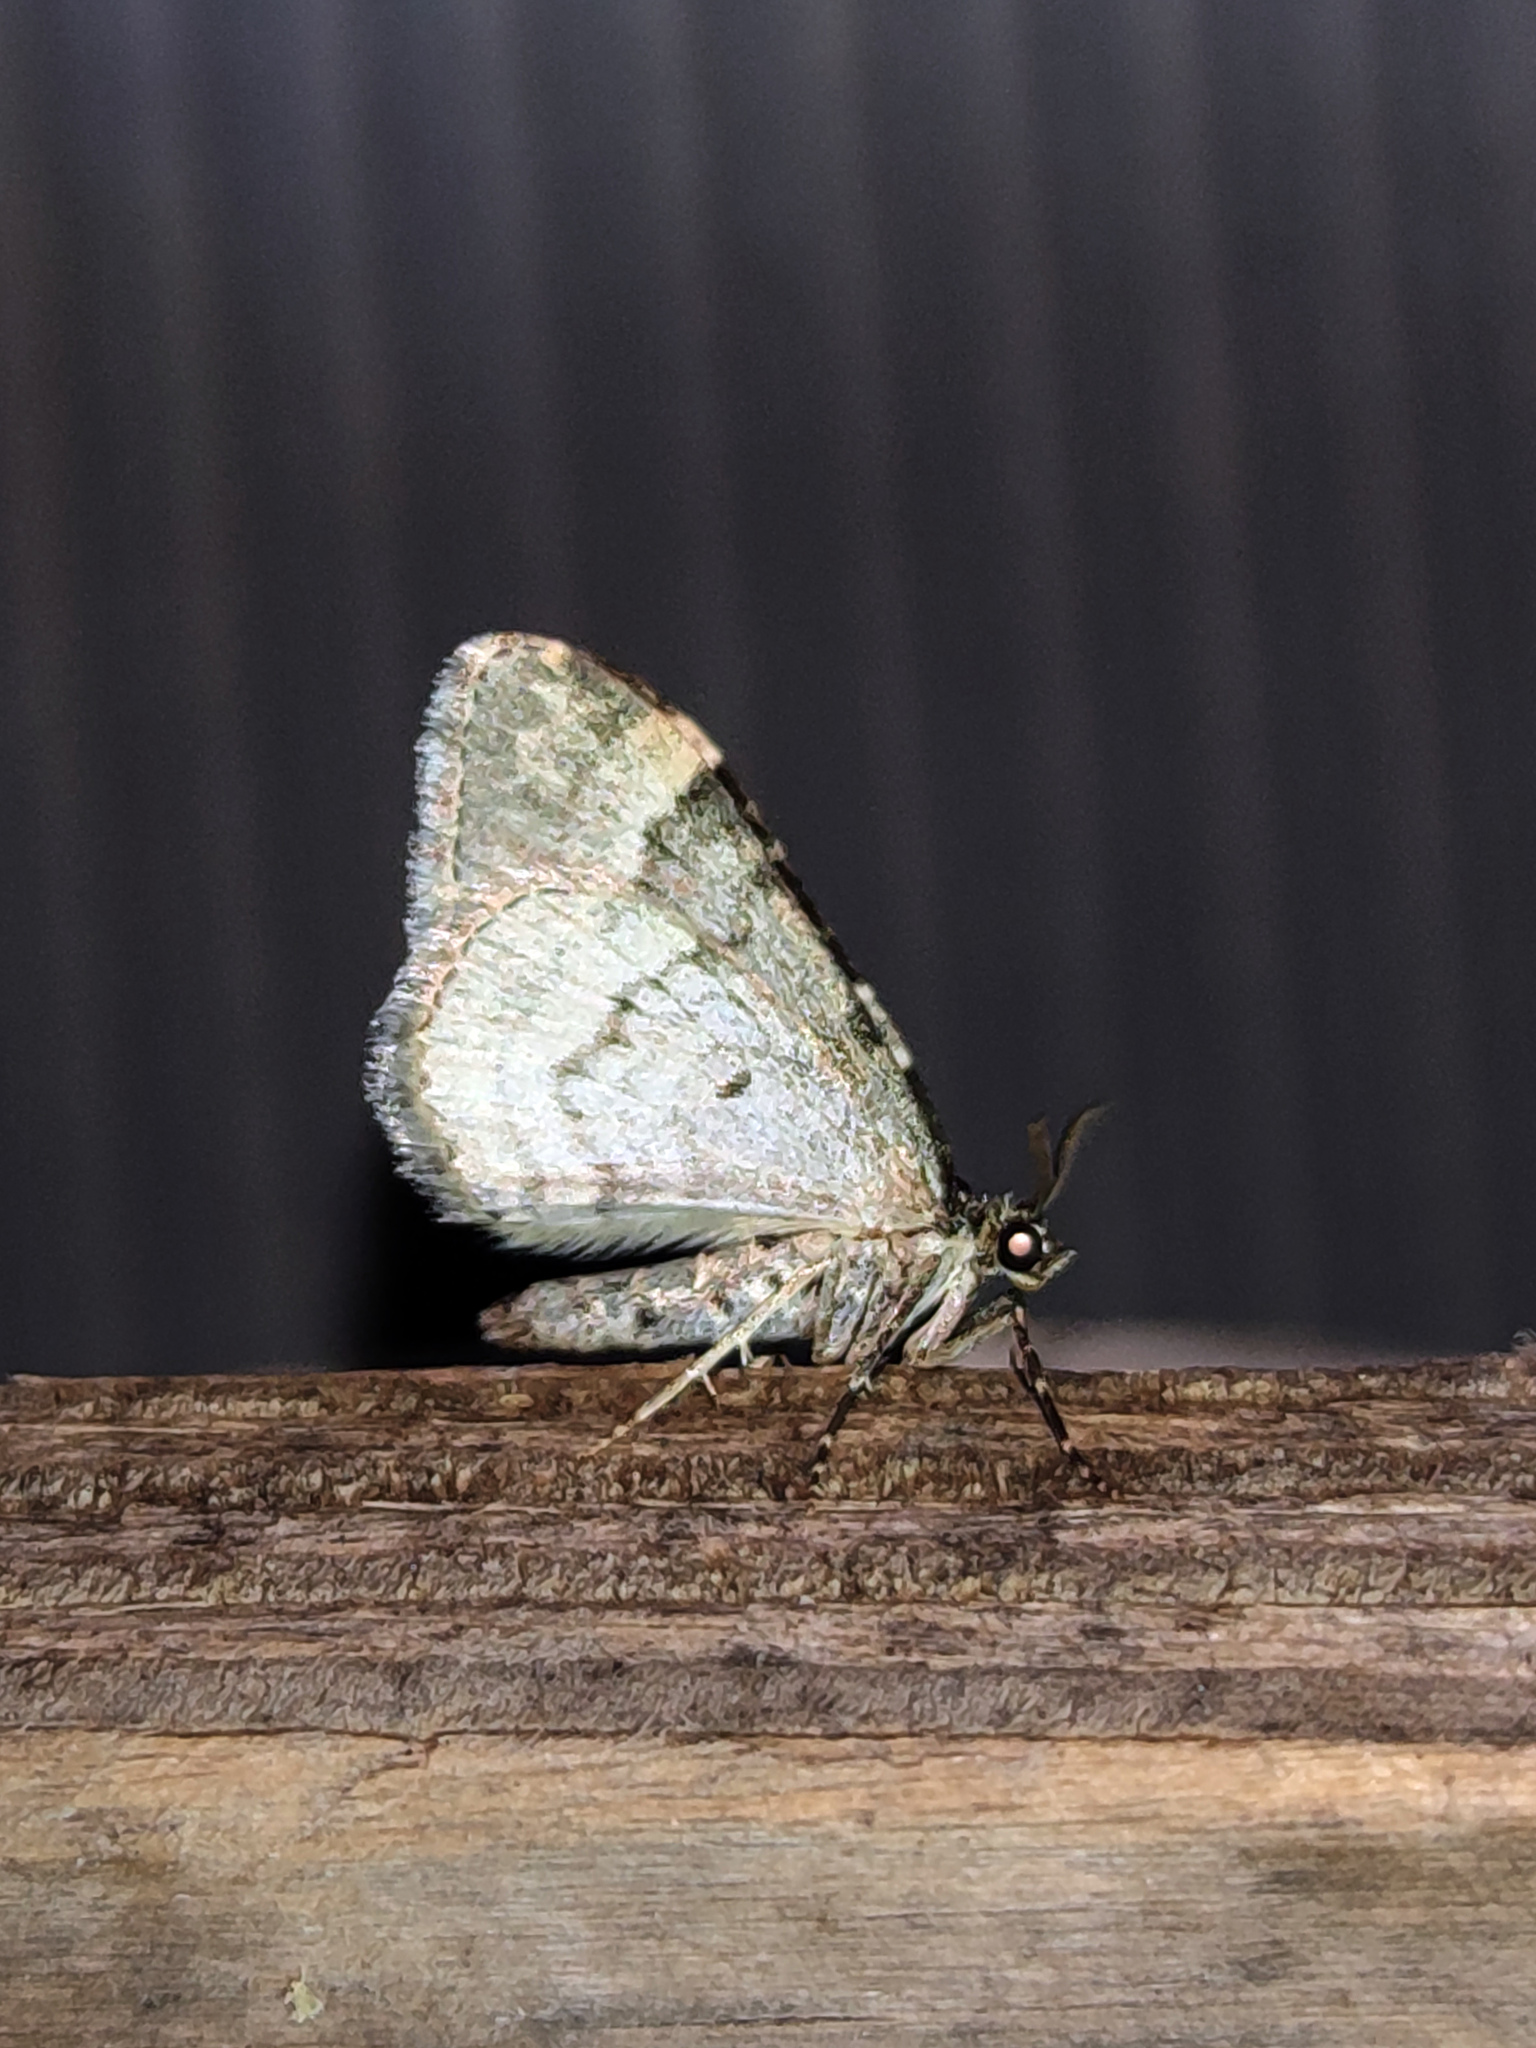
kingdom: Animalia
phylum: Arthropoda
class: Insecta
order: Lepidoptera
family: Geometridae
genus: Xanthorhoe
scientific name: Xanthorhoe fluctuata
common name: Garden carpet
